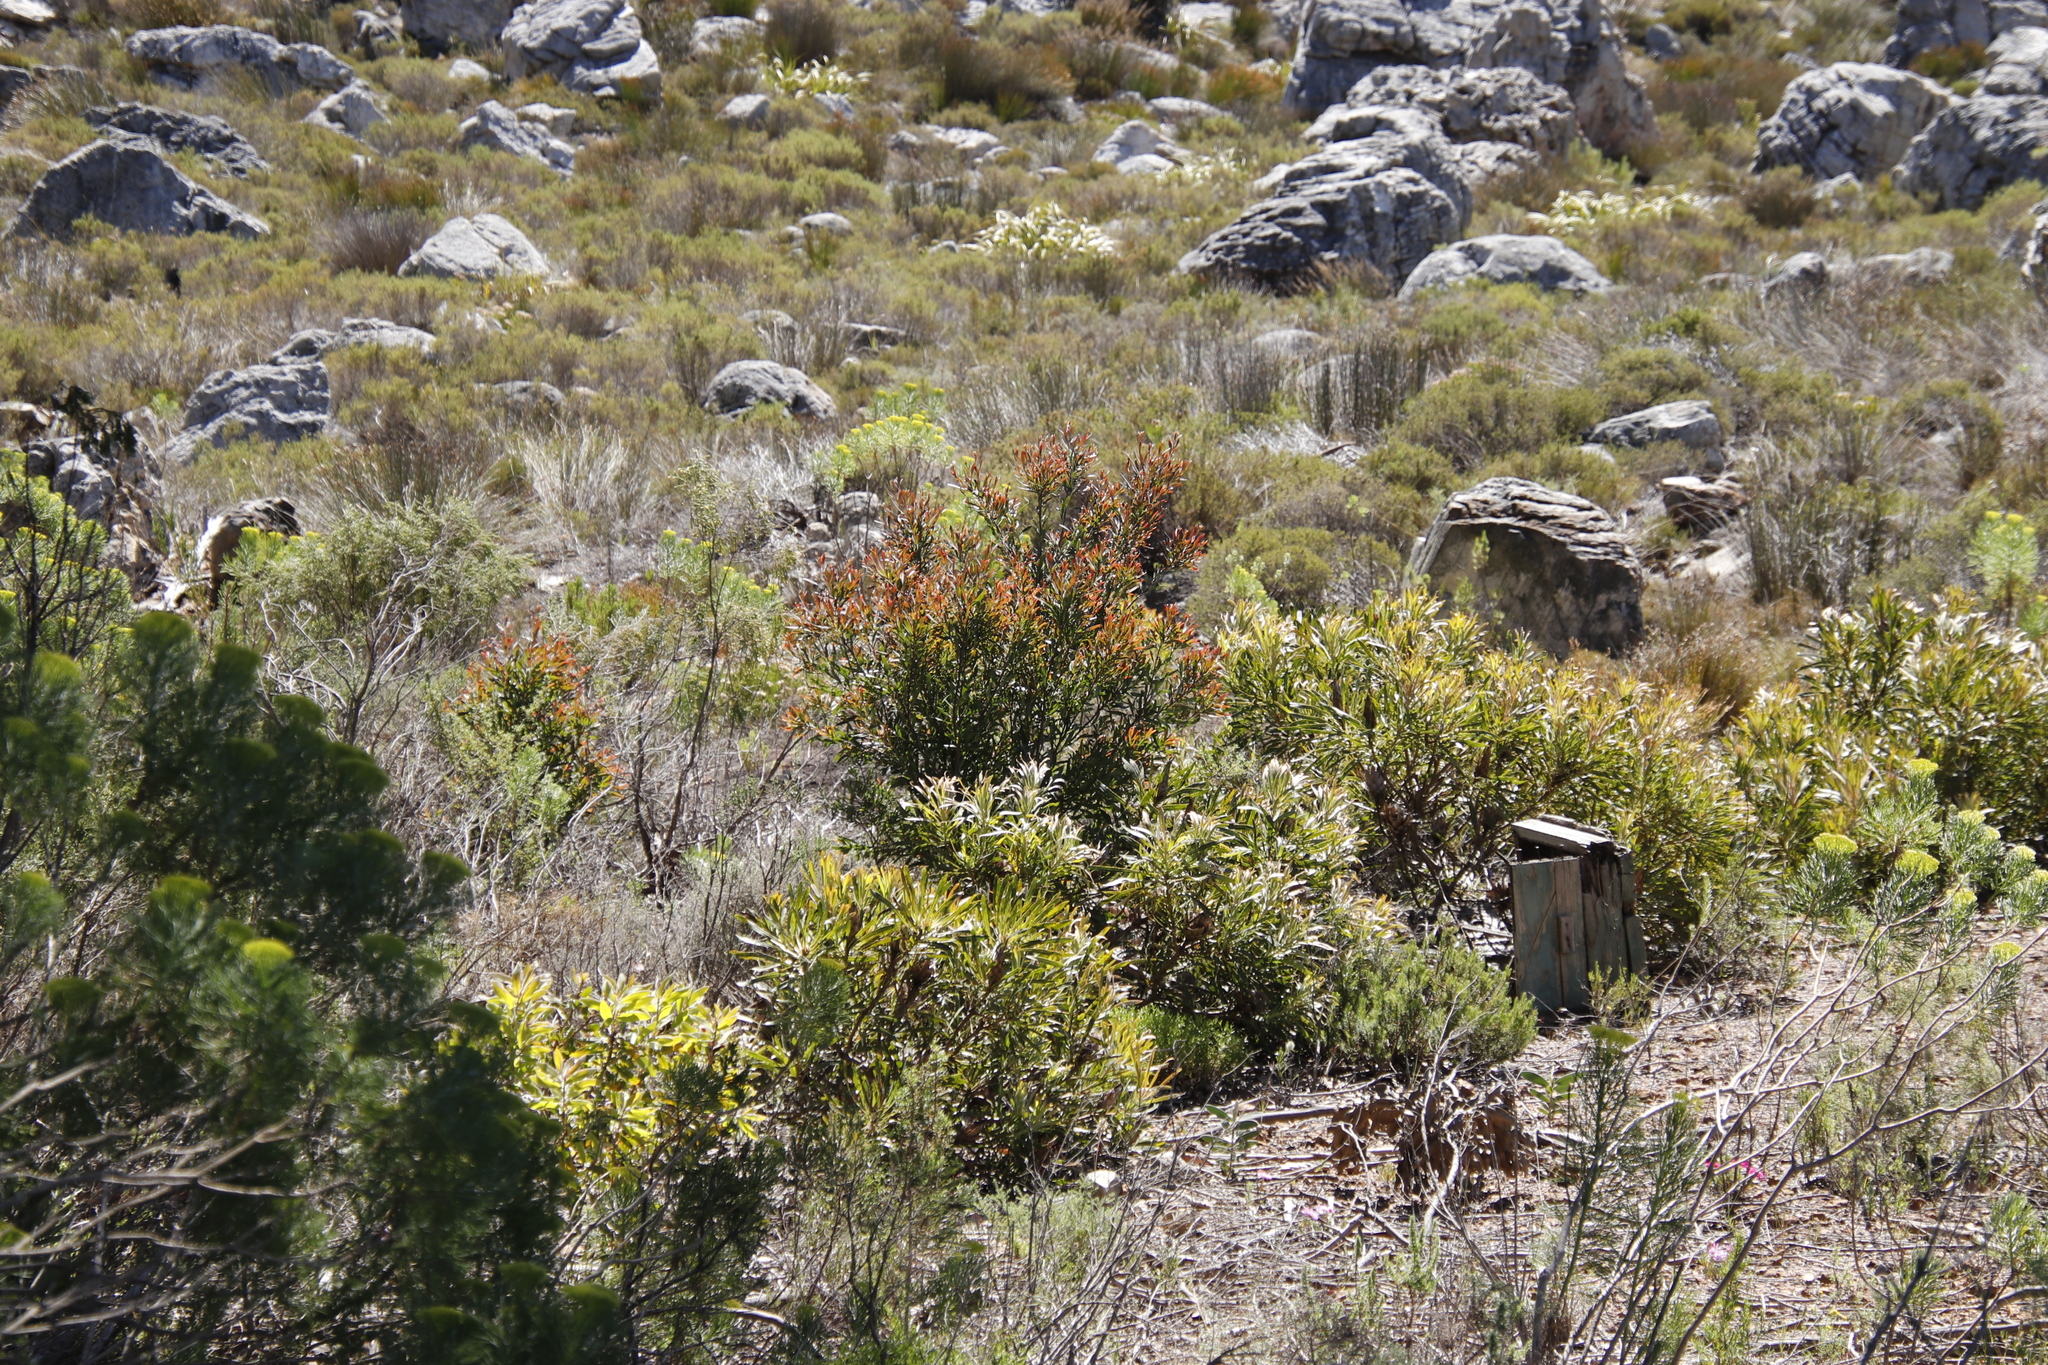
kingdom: Plantae
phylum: Tracheophyta
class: Magnoliopsida
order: Proteales
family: Proteaceae
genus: Hakea
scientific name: Hakea salicifolia
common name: Willow hakea
